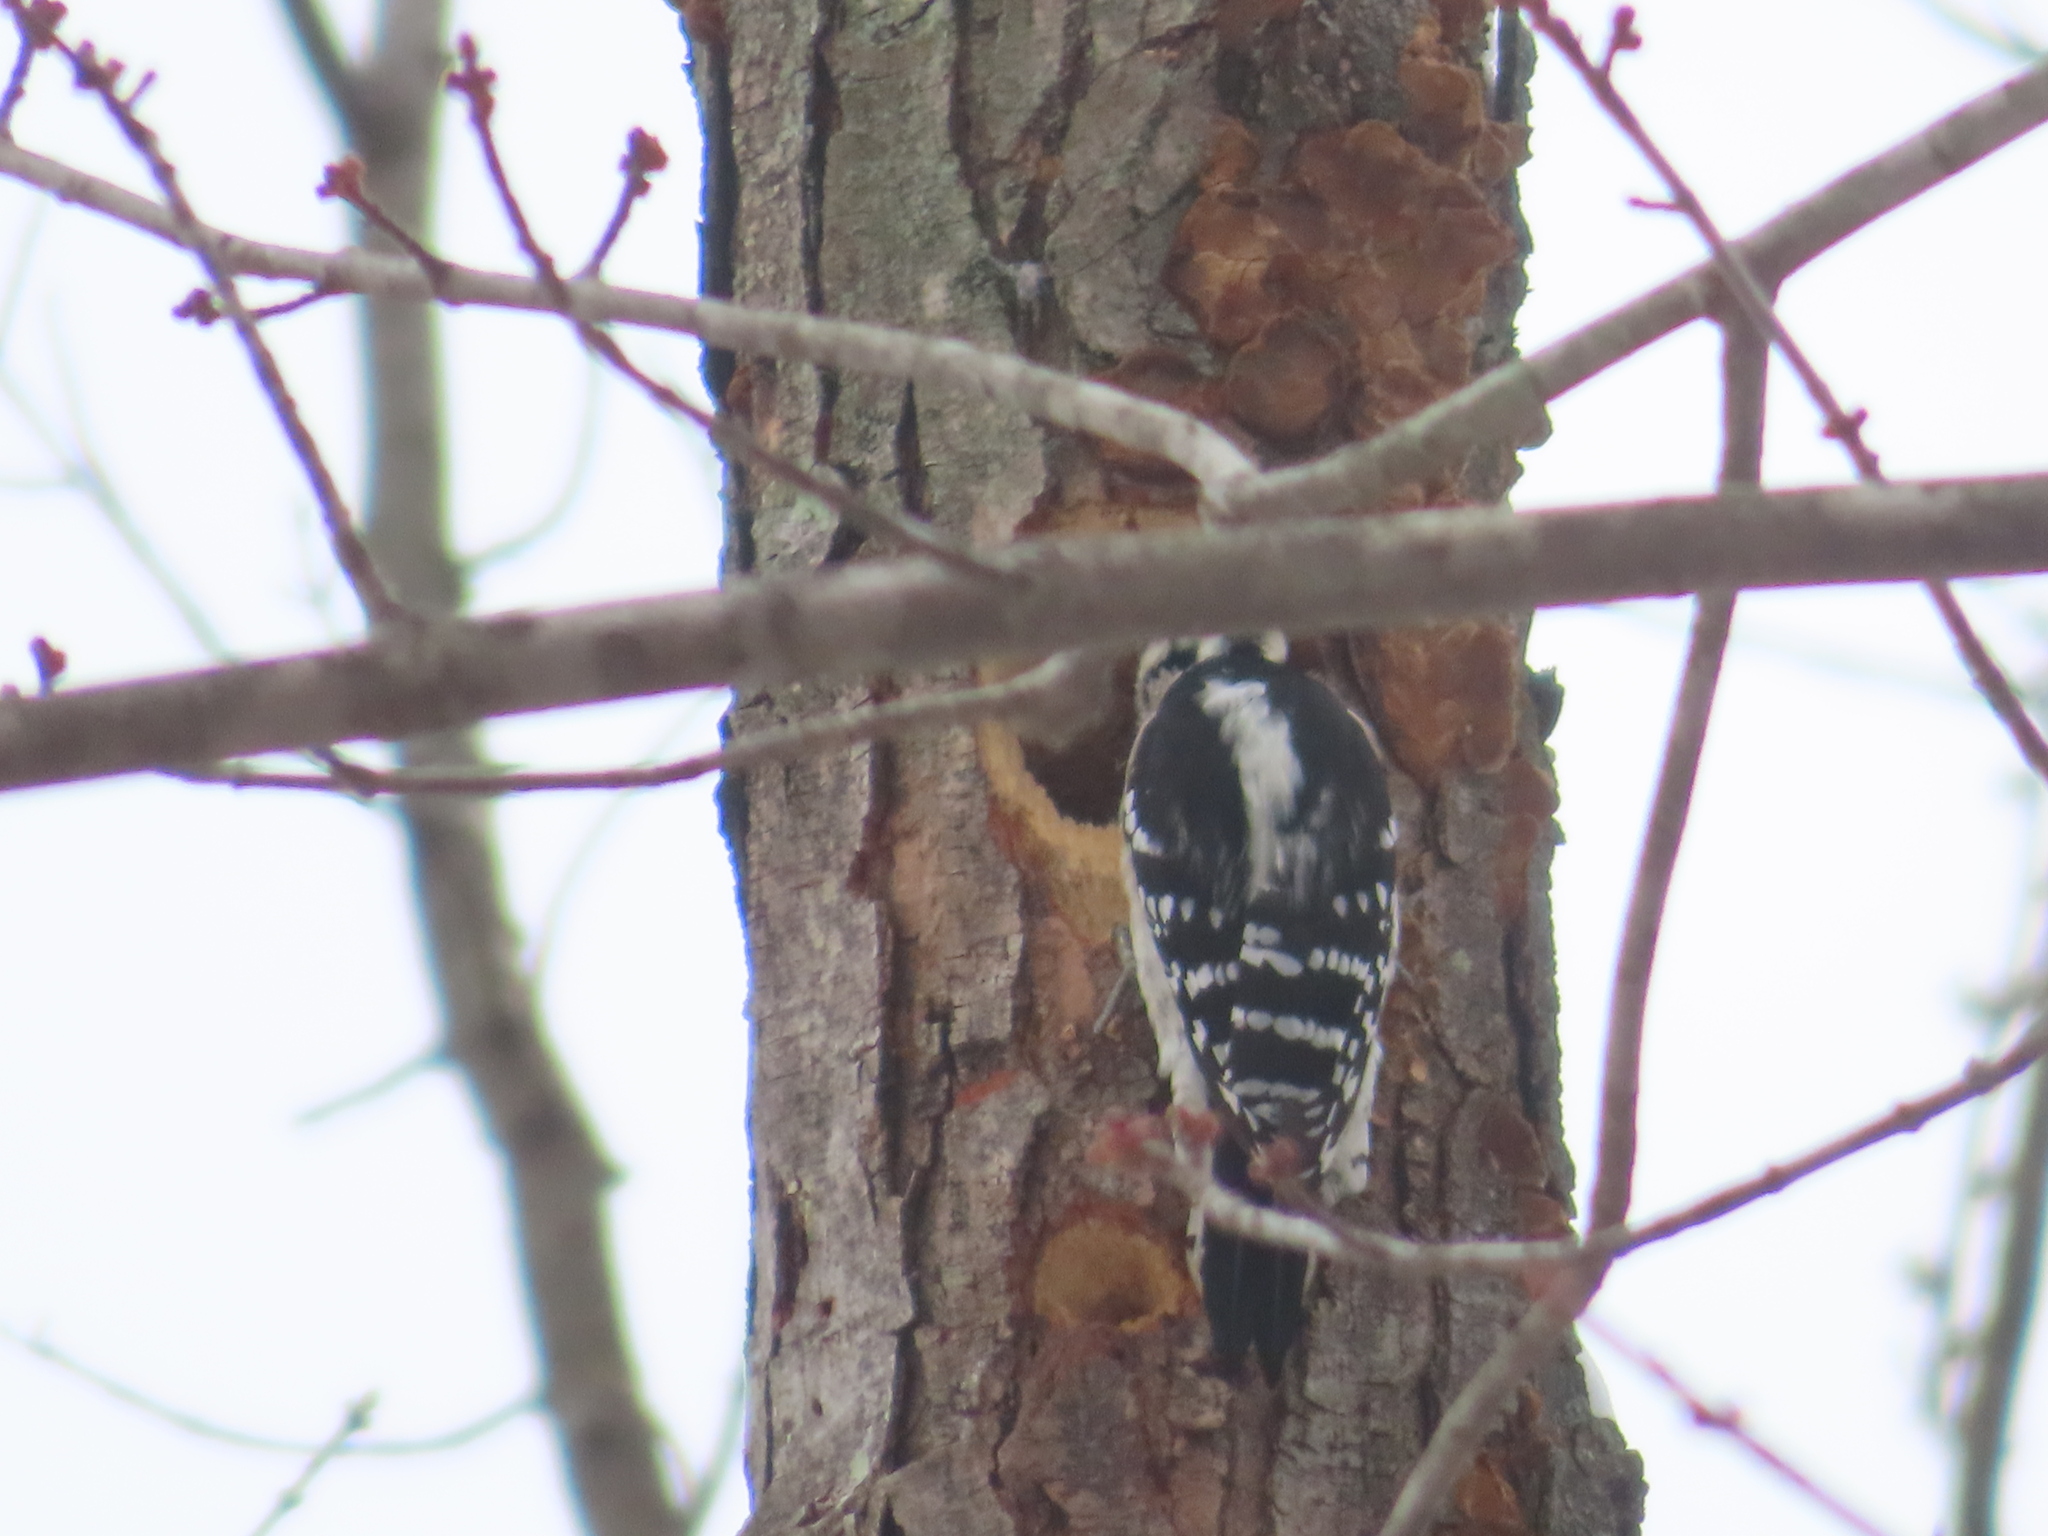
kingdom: Animalia
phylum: Chordata
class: Aves
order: Piciformes
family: Picidae
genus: Dryobates
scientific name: Dryobates pubescens
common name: Downy woodpecker
